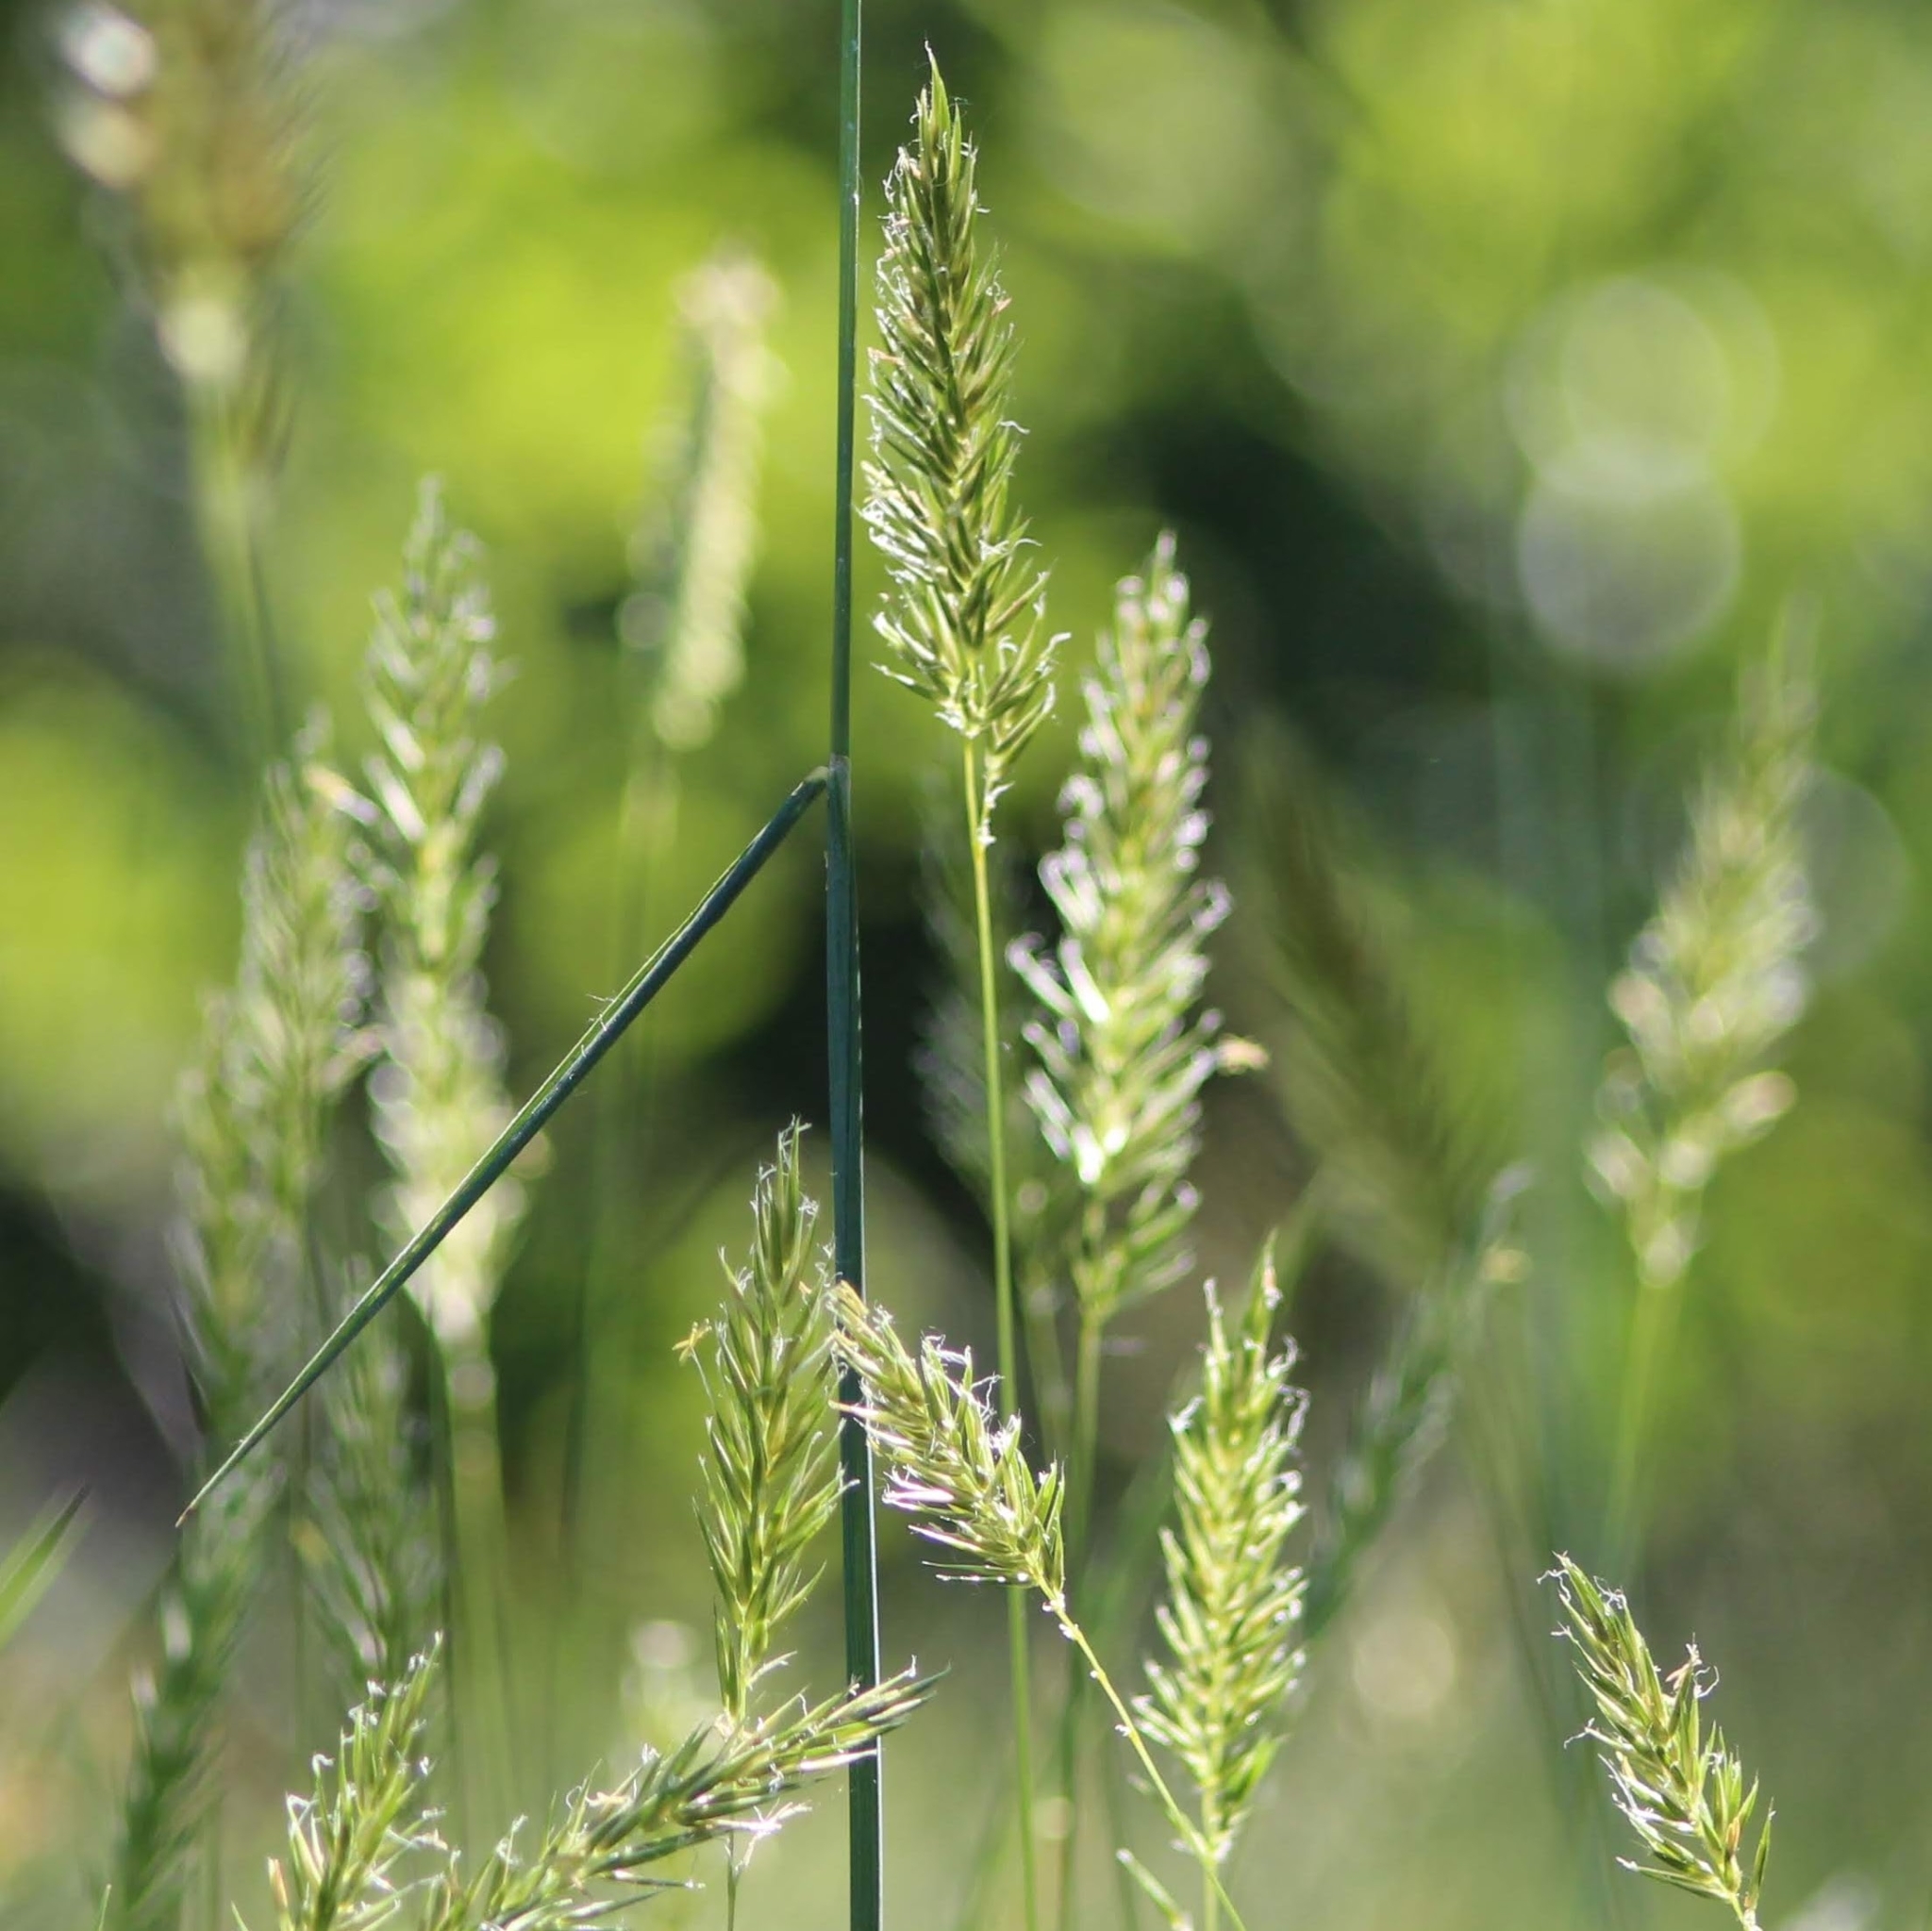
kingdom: Plantae
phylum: Tracheophyta
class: Liliopsida
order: Poales
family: Poaceae
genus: Anthoxanthum
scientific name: Anthoxanthum odoratum
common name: Sweet vernalgrass
